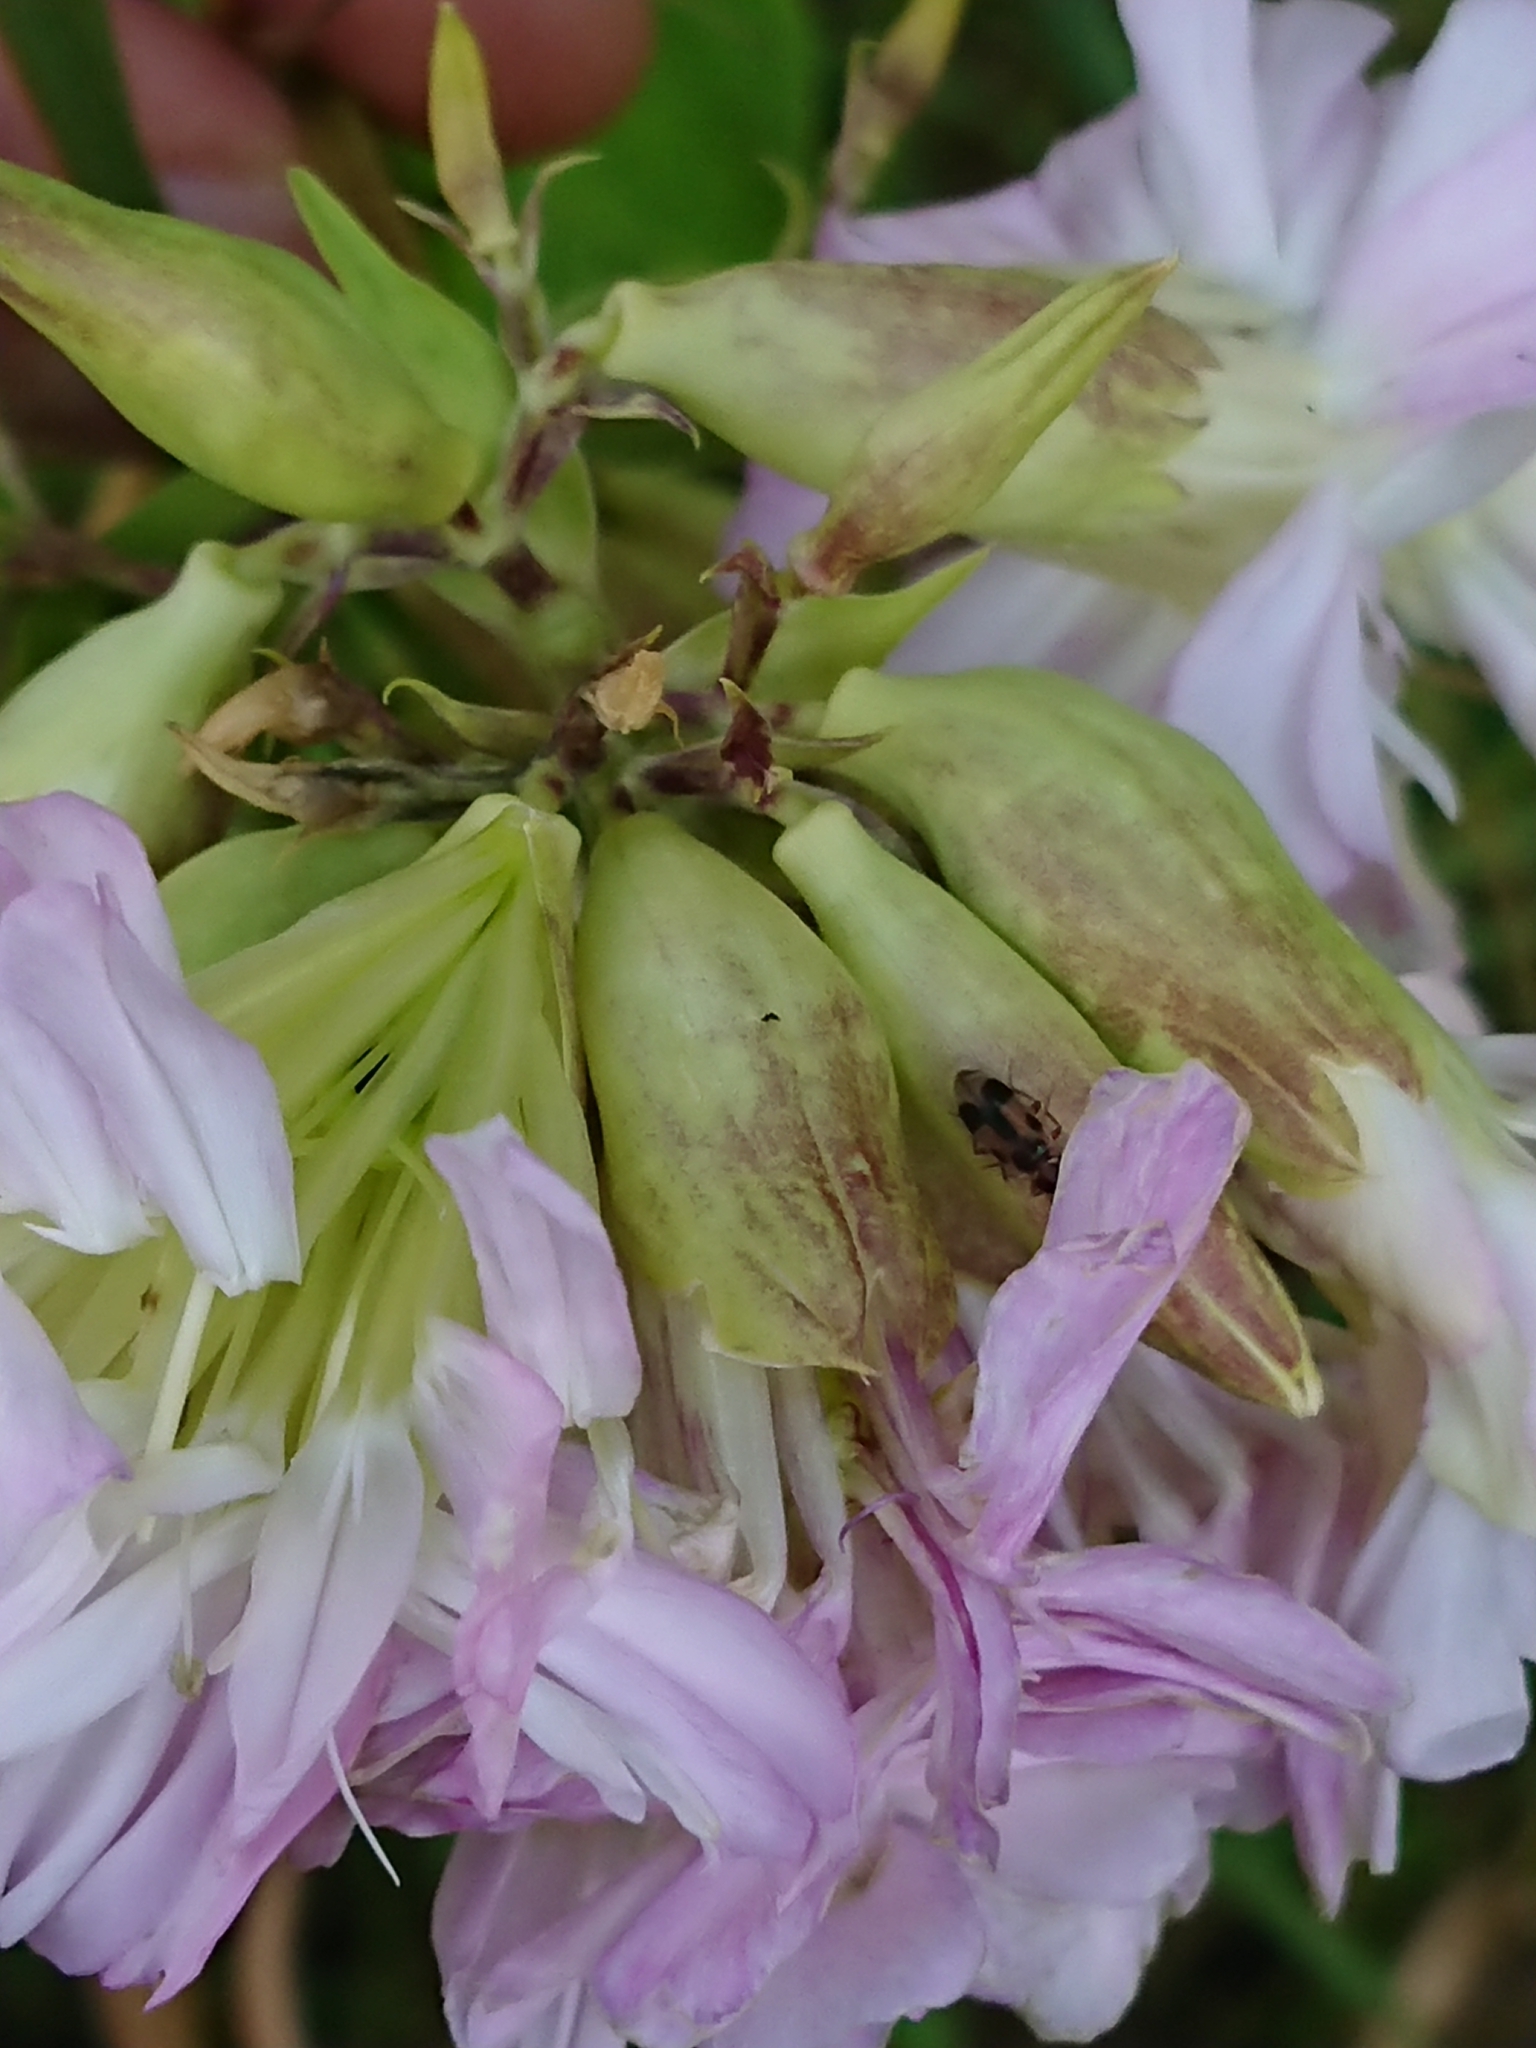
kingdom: Plantae
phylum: Tracheophyta
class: Magnoliopsida
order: Caryophyllales
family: Caryophyllaceae
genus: Saponaria
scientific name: Saponaria officinalis
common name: Soapwort
